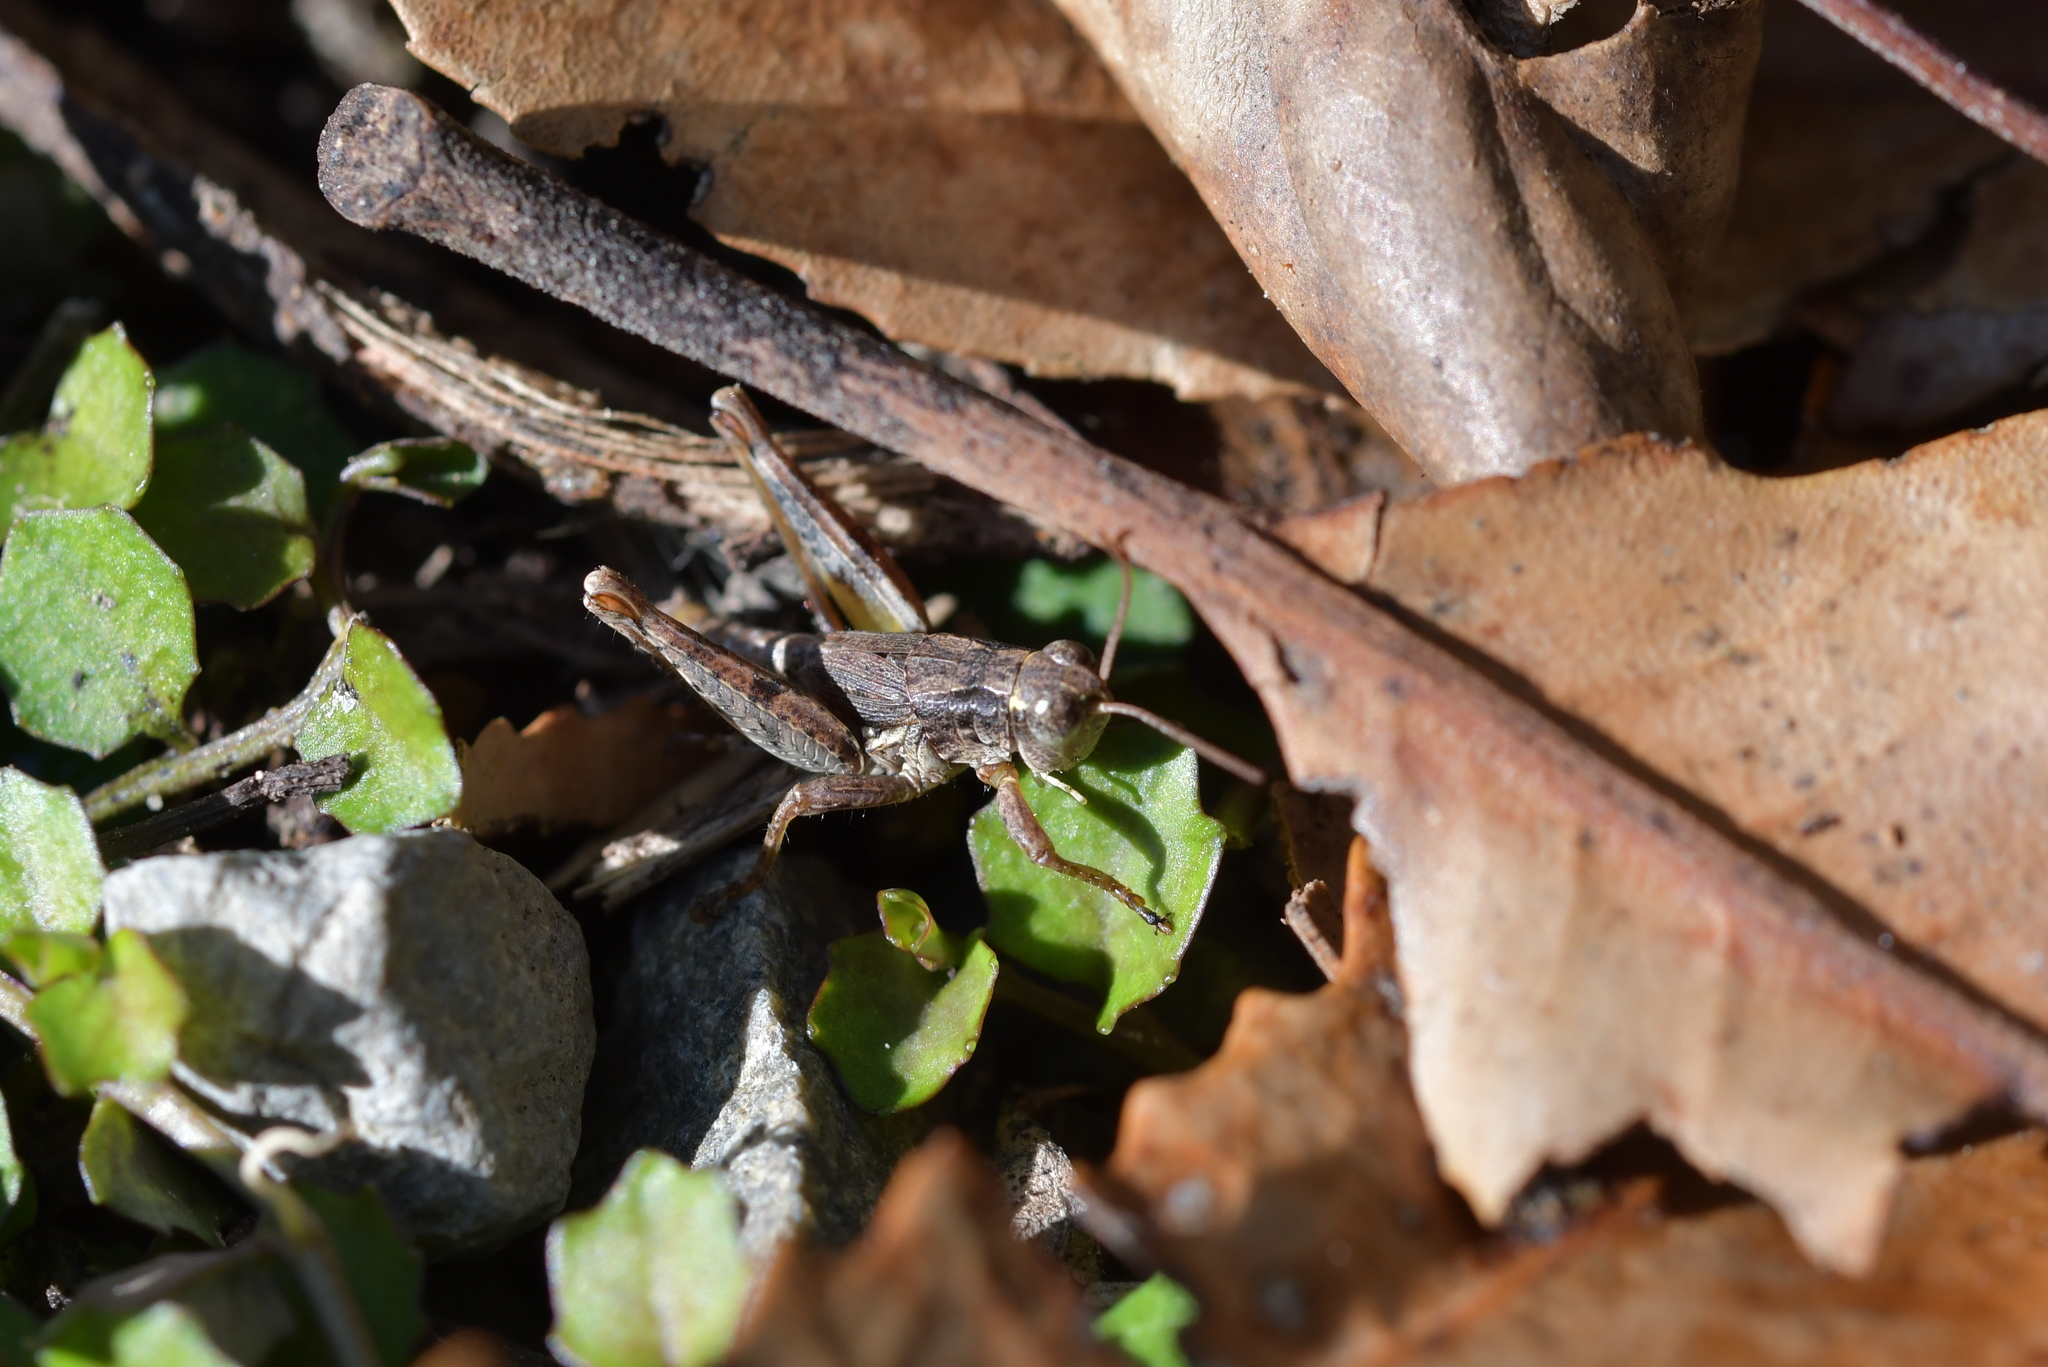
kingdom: Animalia
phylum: Arthropoda
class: Insecta
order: Orthoptera
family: Acrididae
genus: Phaulacridium
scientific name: Phaulacridium marginale
